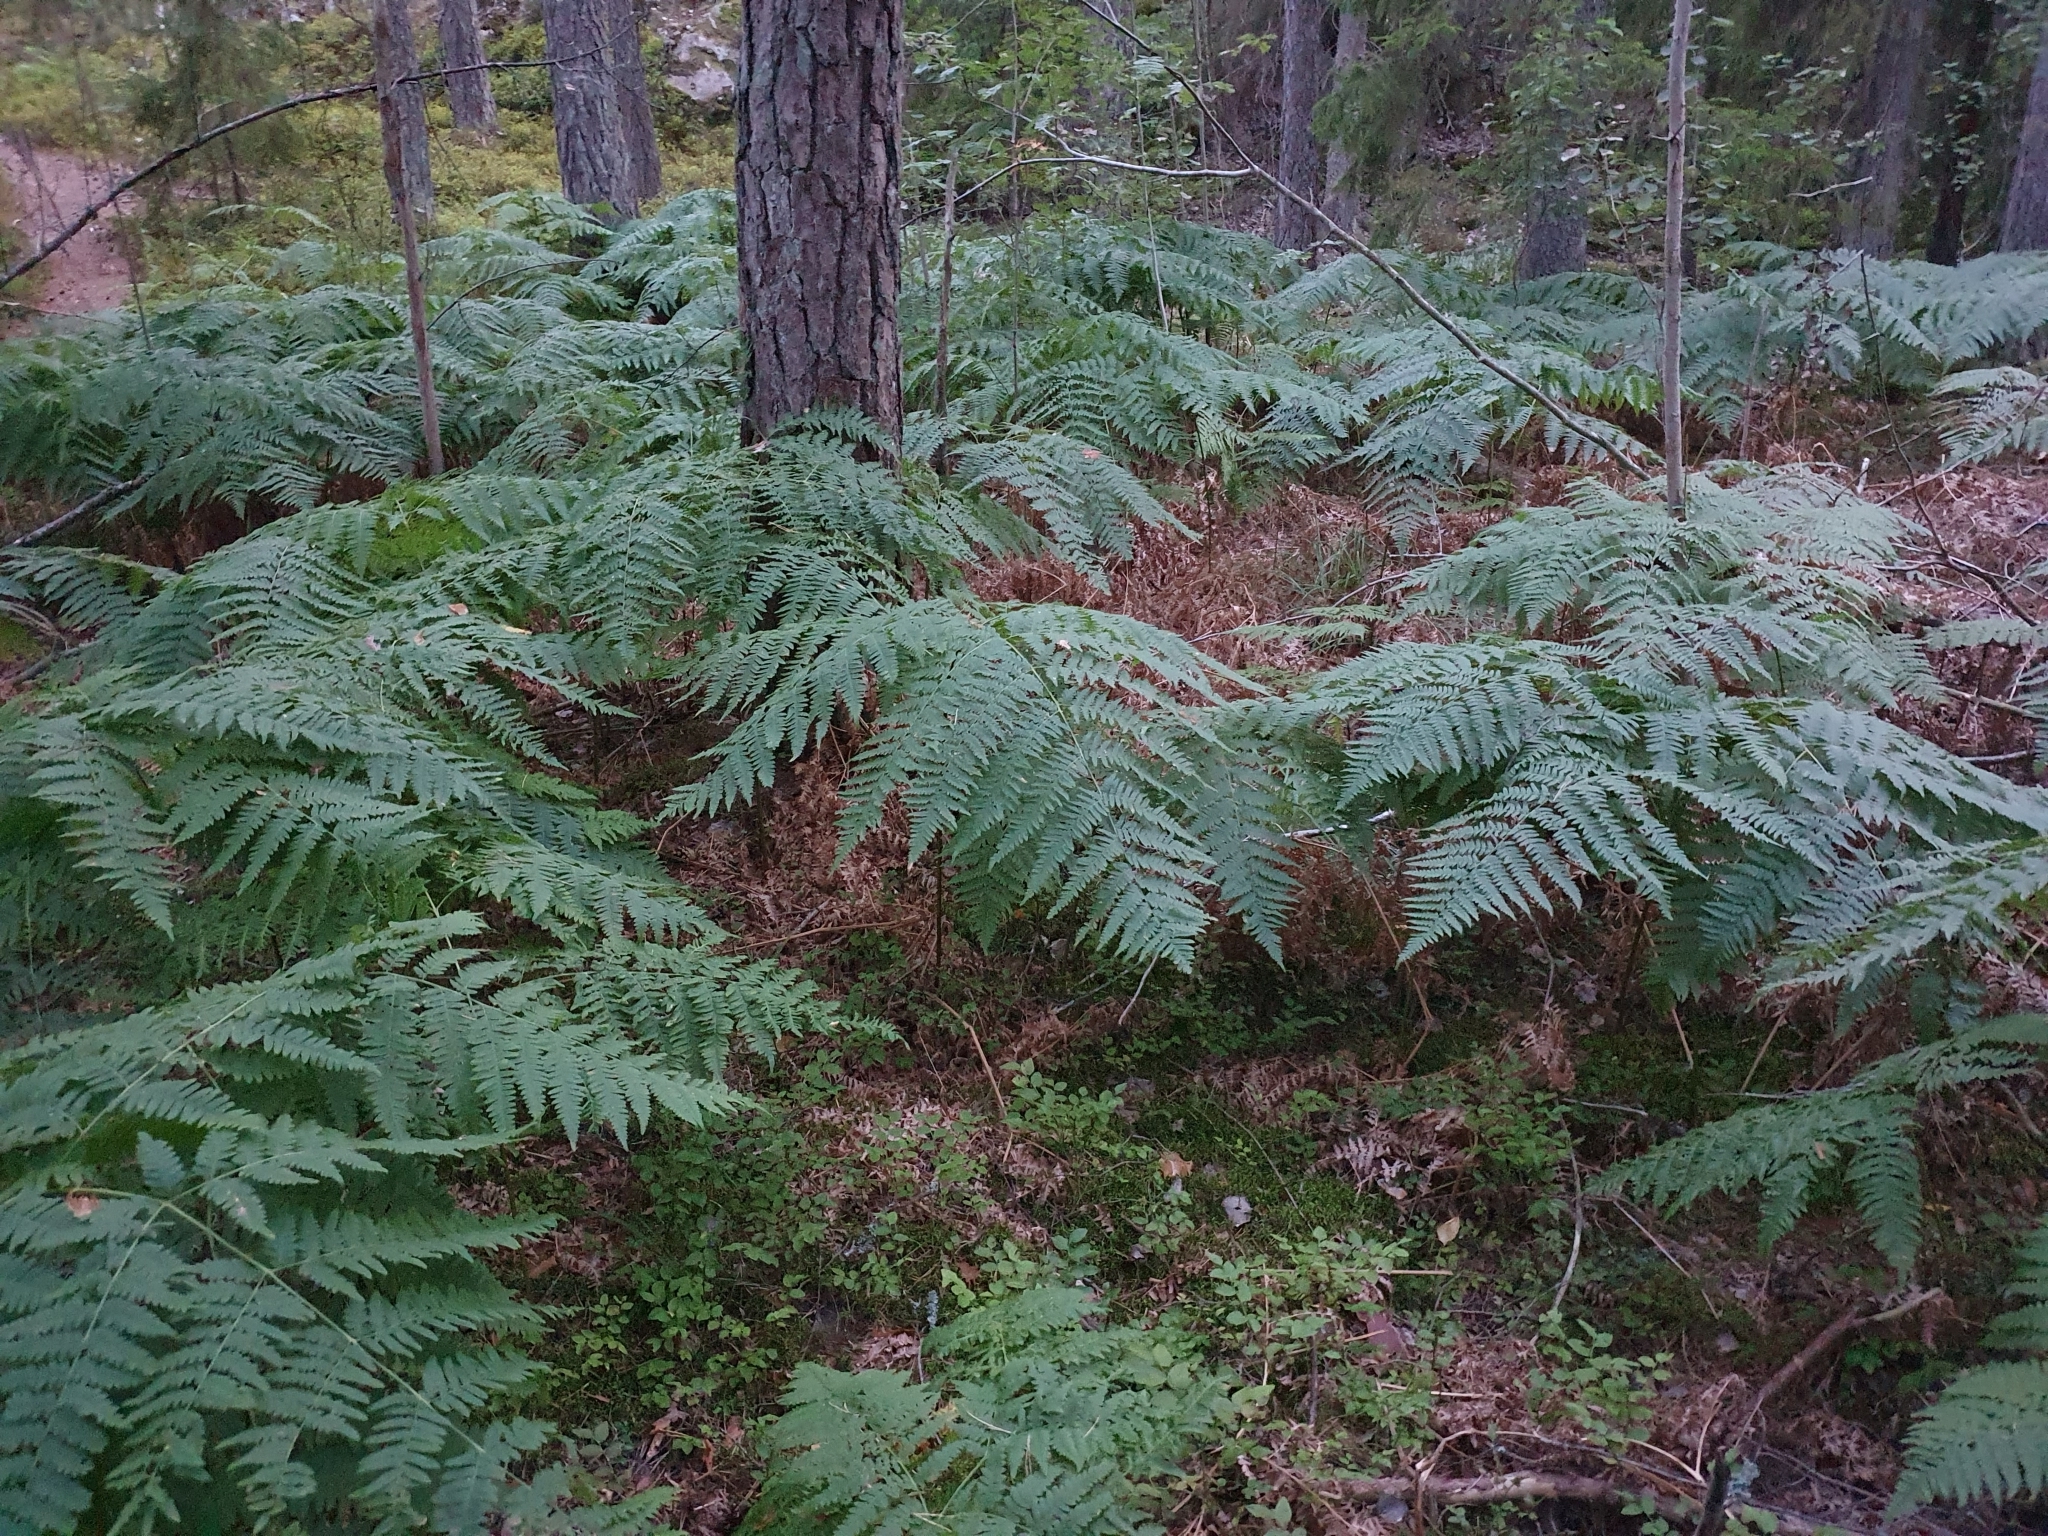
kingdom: Plantae
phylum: Tracheophyta
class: Polypodiopsida
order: Polypodiales
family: Dennstaedtiaceae
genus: Pteridium
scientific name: Pteridium aquilinum
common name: Bracken
